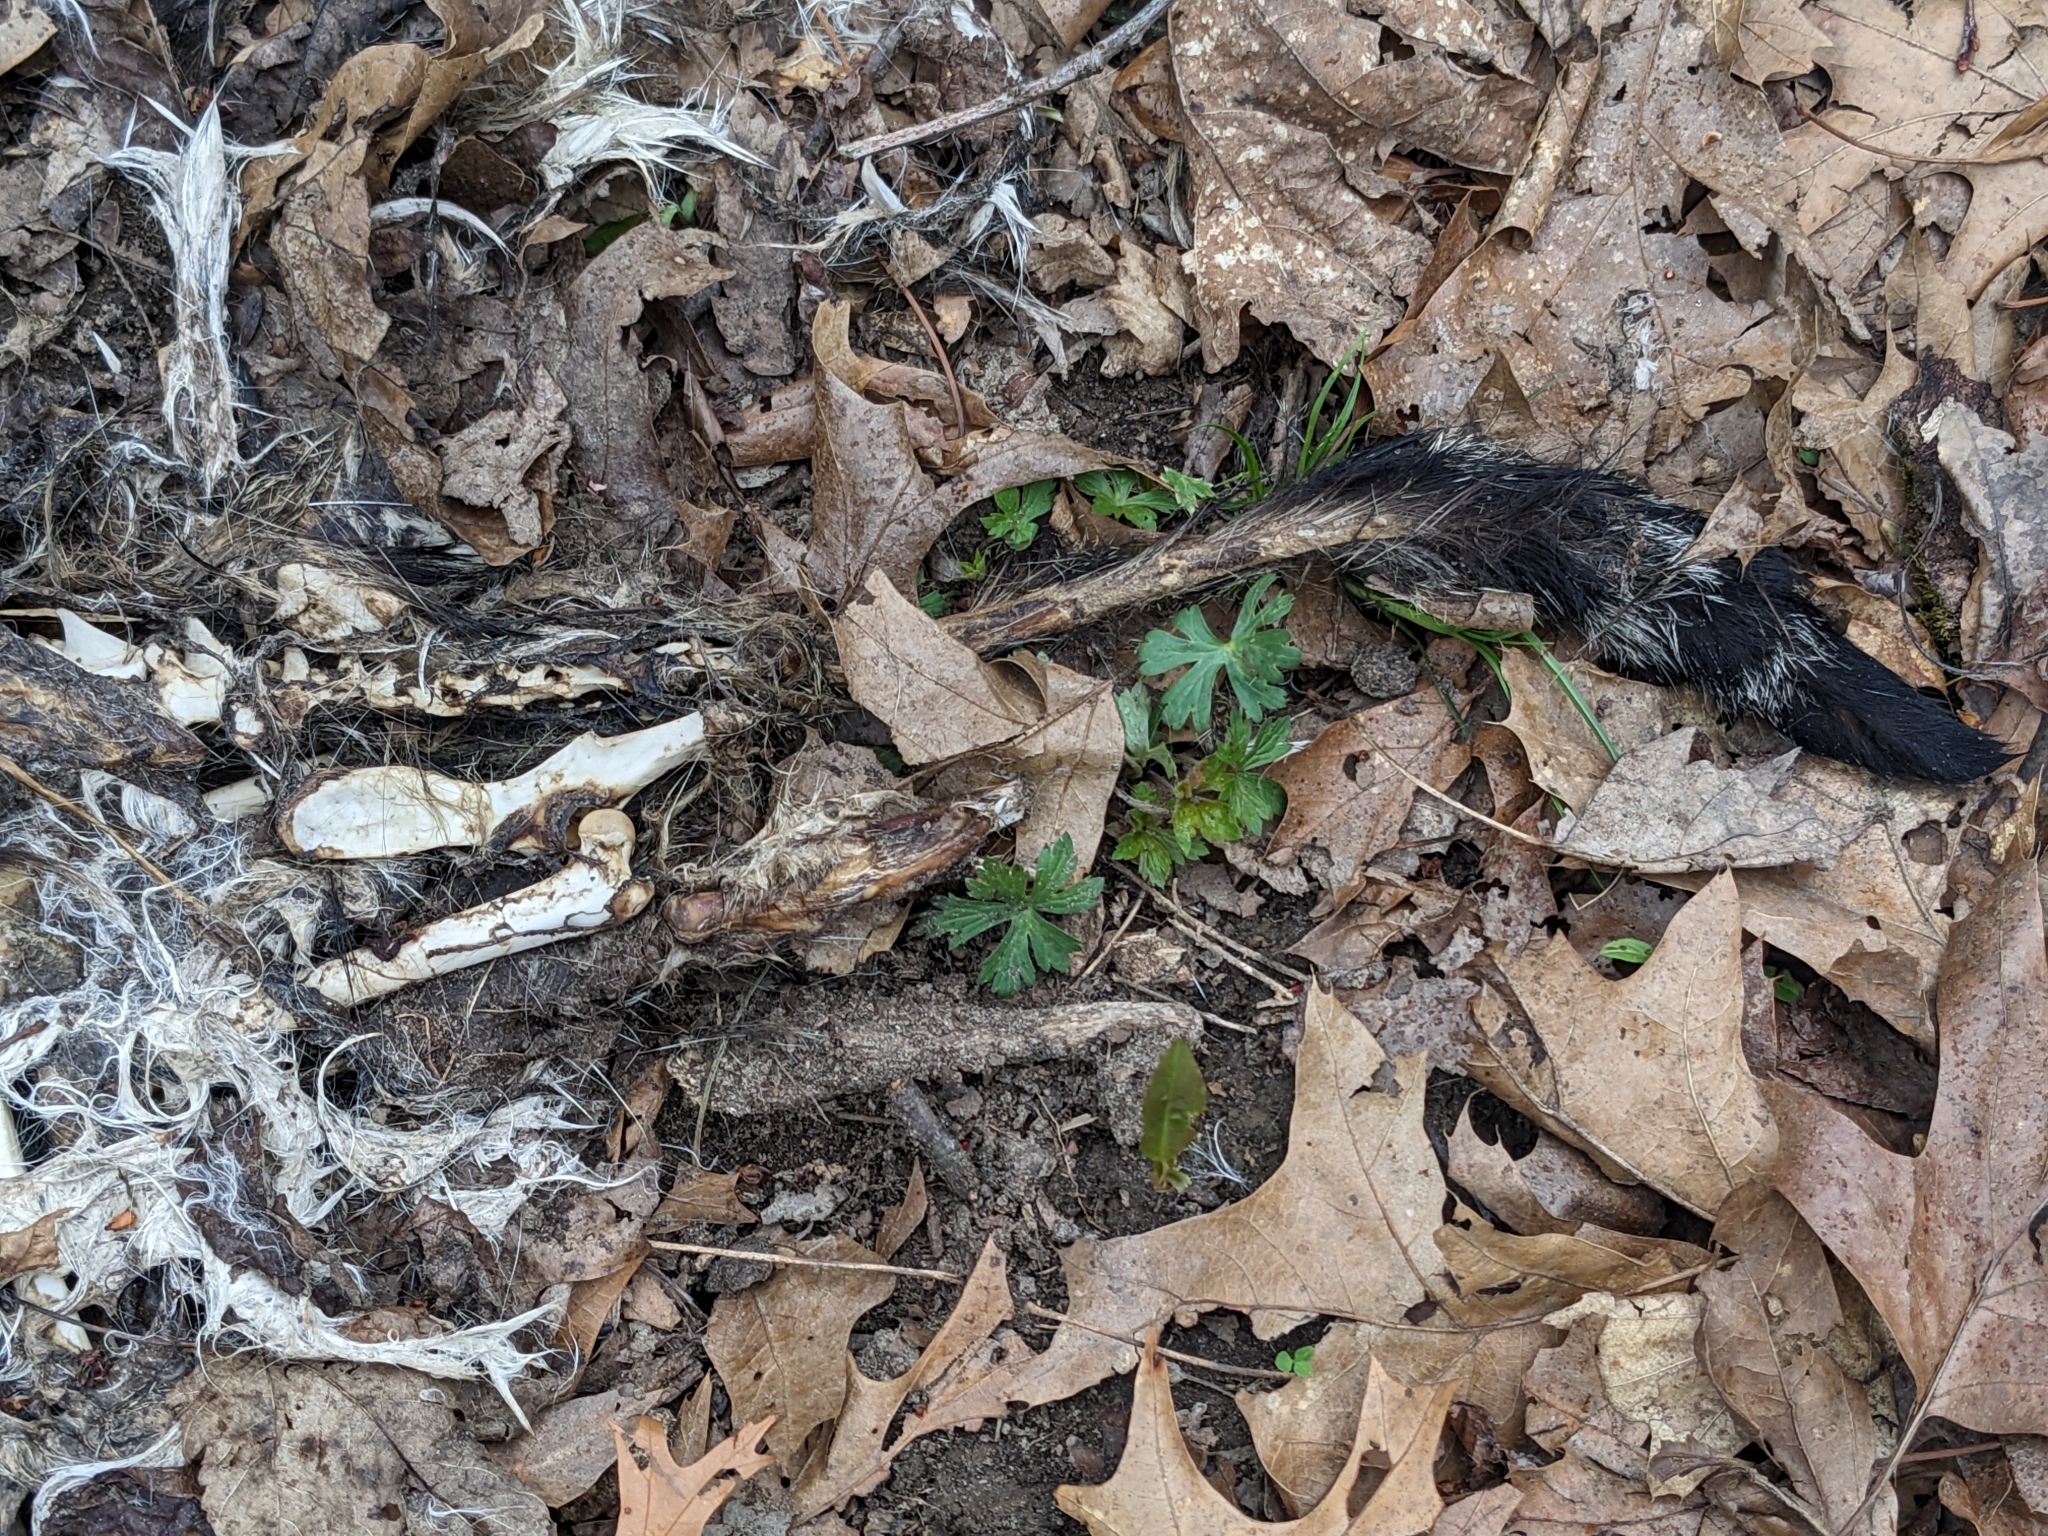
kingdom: Animalia
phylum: Chordata
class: Mammalia
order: Carnivora
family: Felidae
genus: Felis
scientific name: Felis catus
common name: Domestic cat
